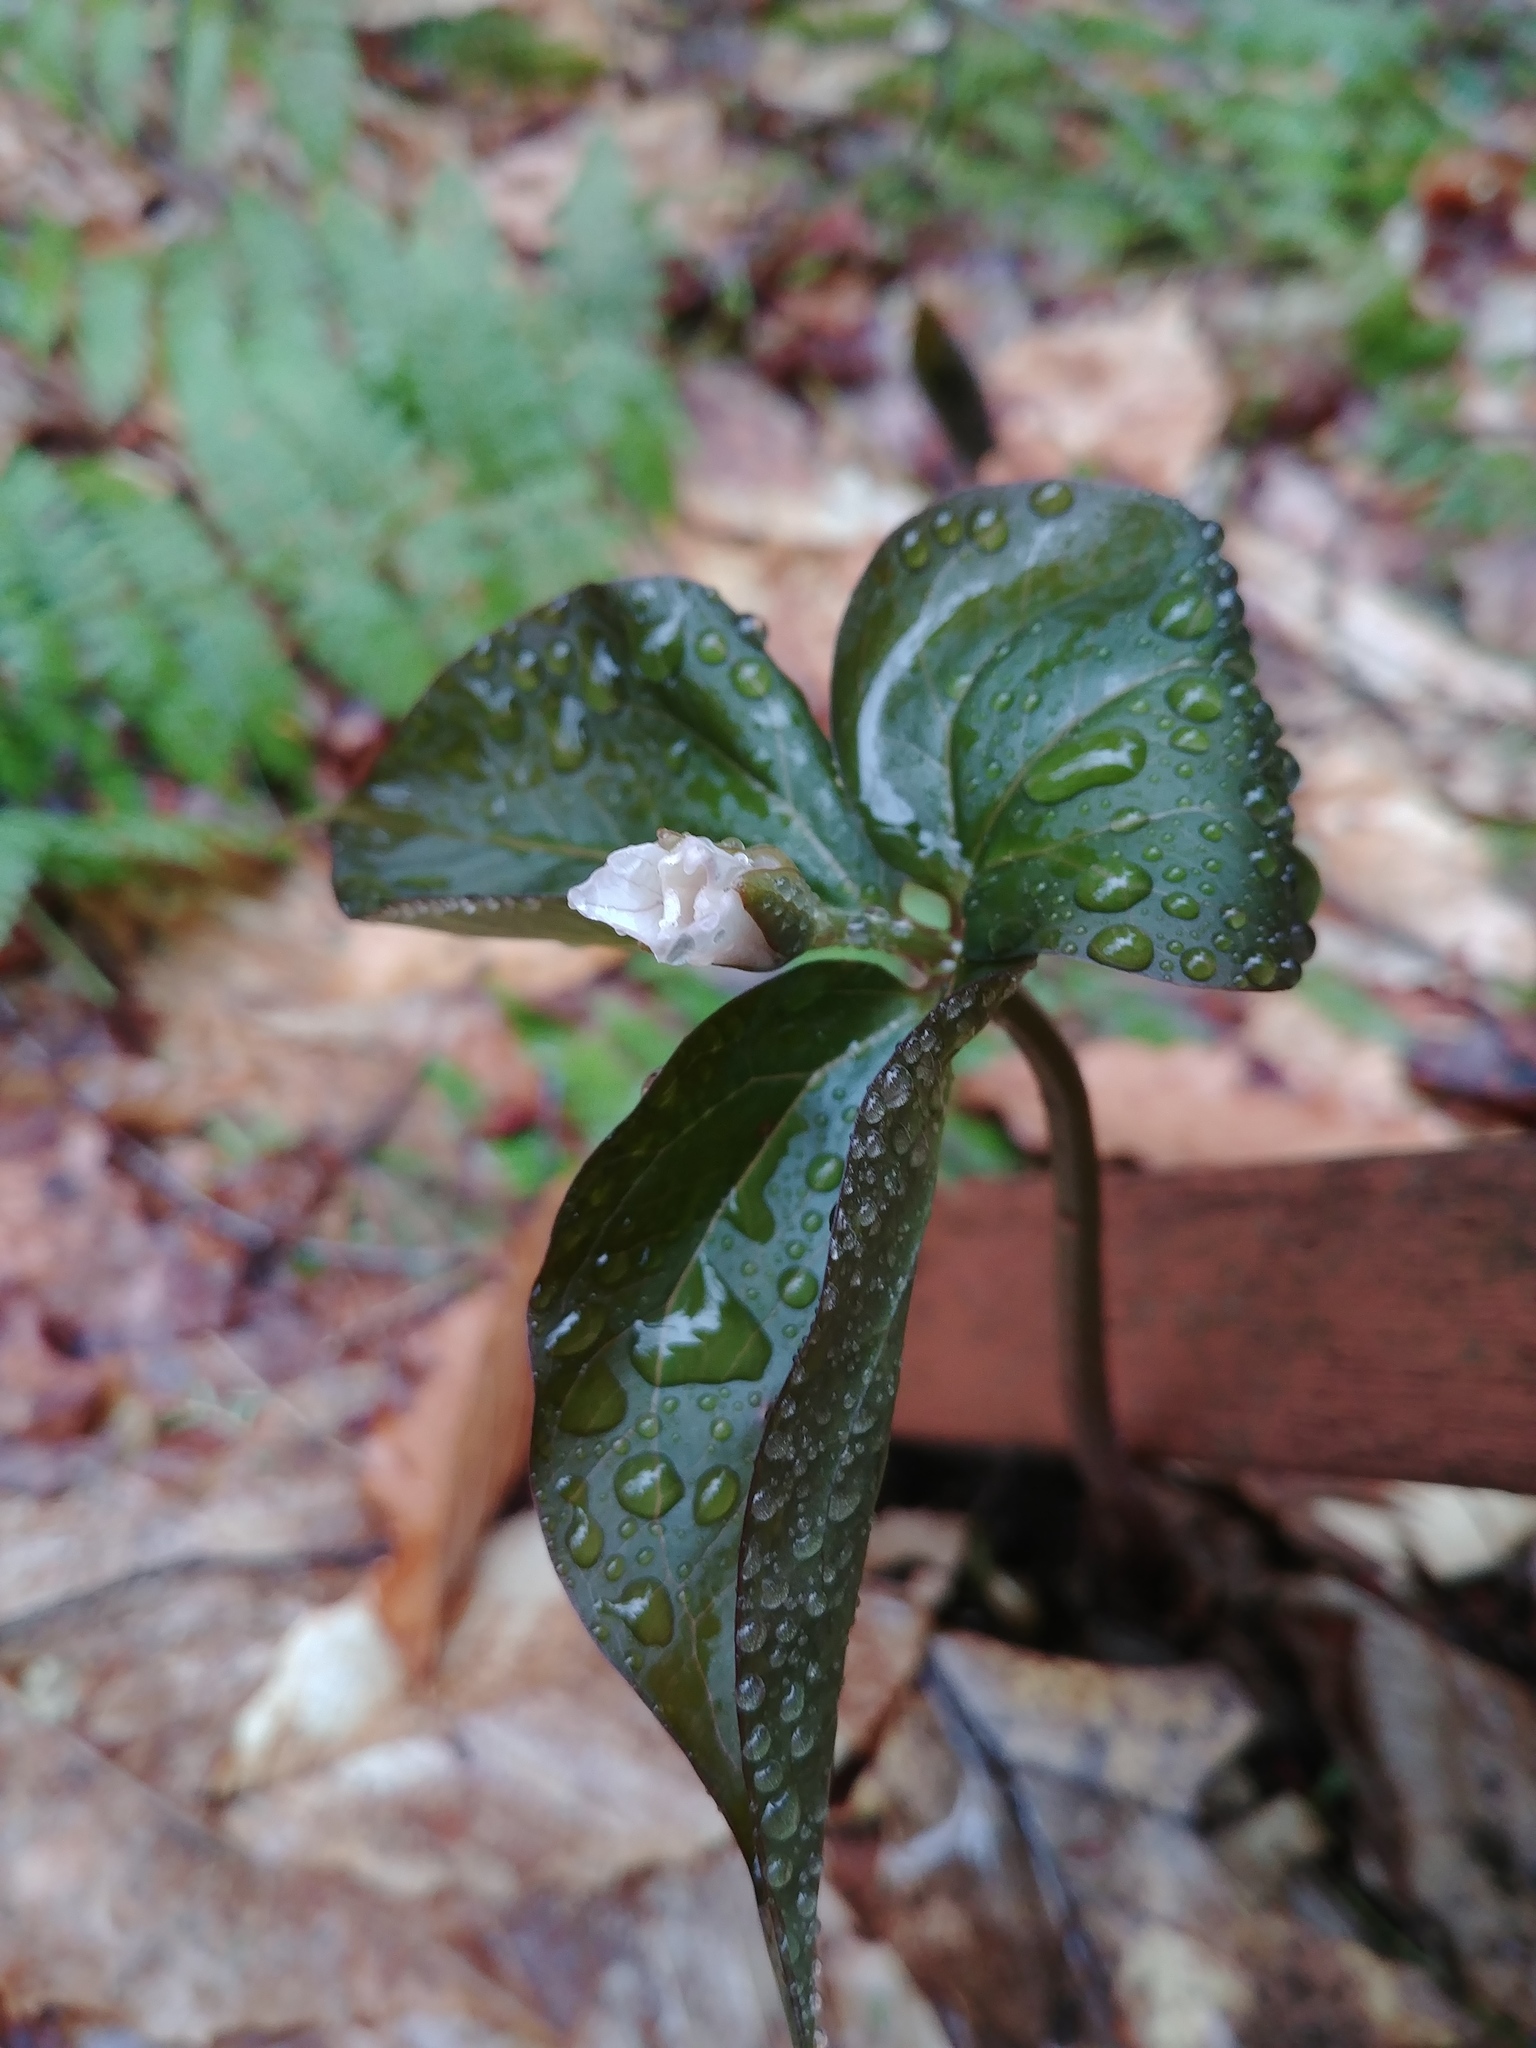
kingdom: Plantae
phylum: Tracheophyta
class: Liliopsida
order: Liliales
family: Melanthiaceae
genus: Trillium
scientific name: Trillium undulatum
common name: Paint trillium
